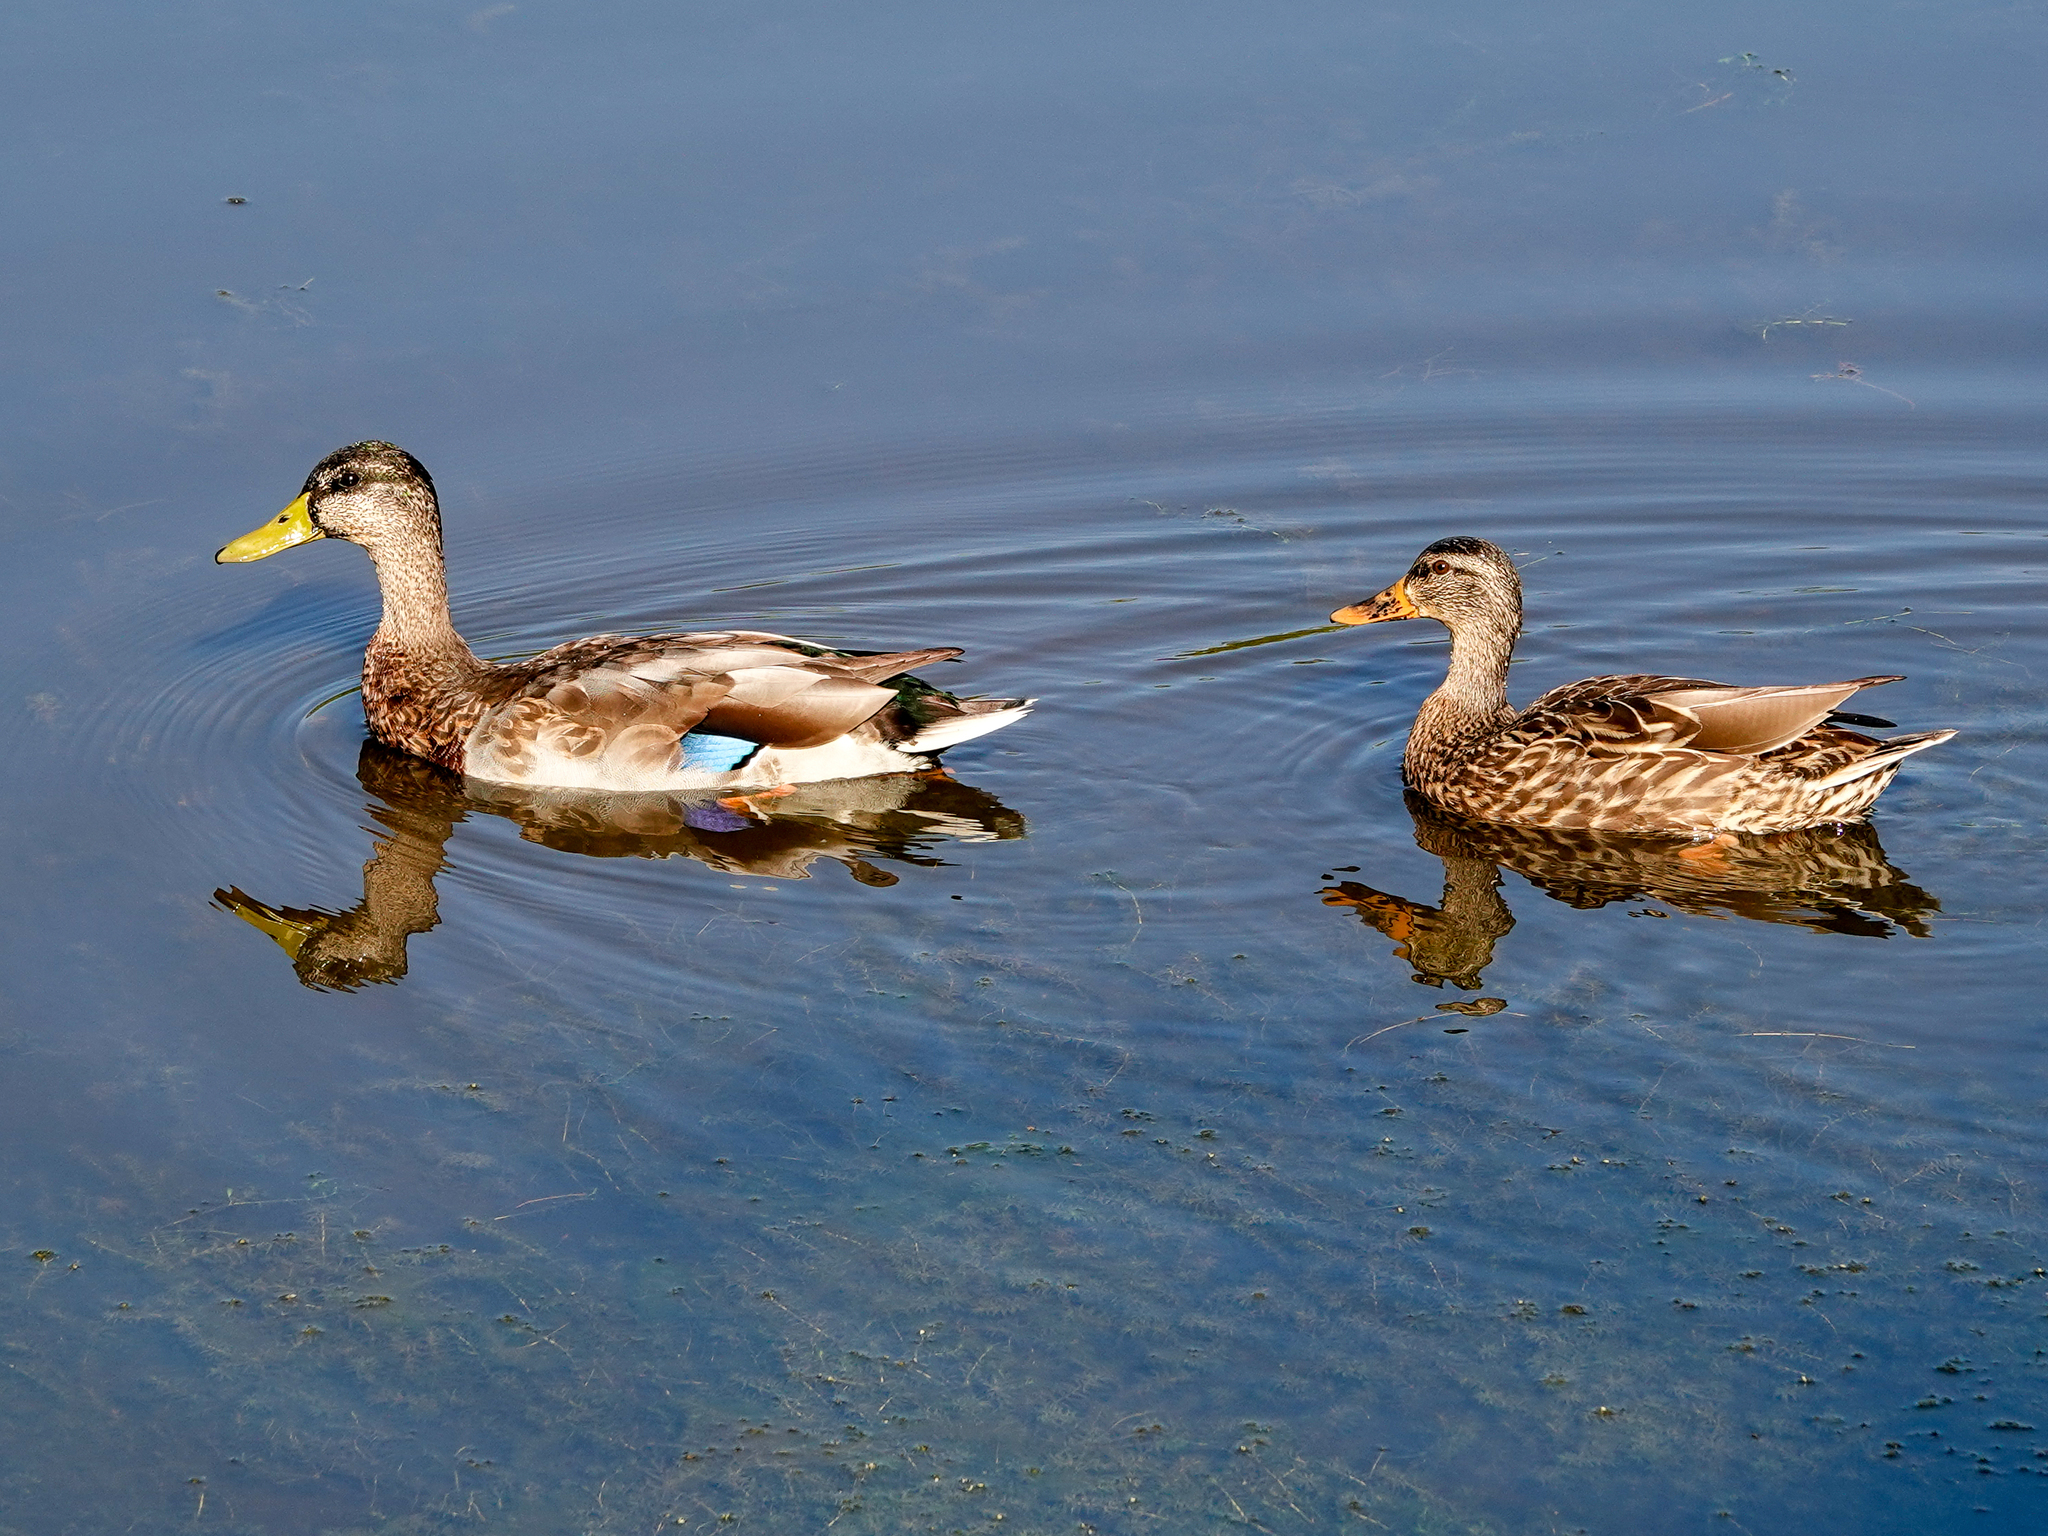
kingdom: Animalia
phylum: Chordata
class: Aves
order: Anseriformes
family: Anatidae
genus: Anas
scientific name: Anas platyrhynchos
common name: Mallard
